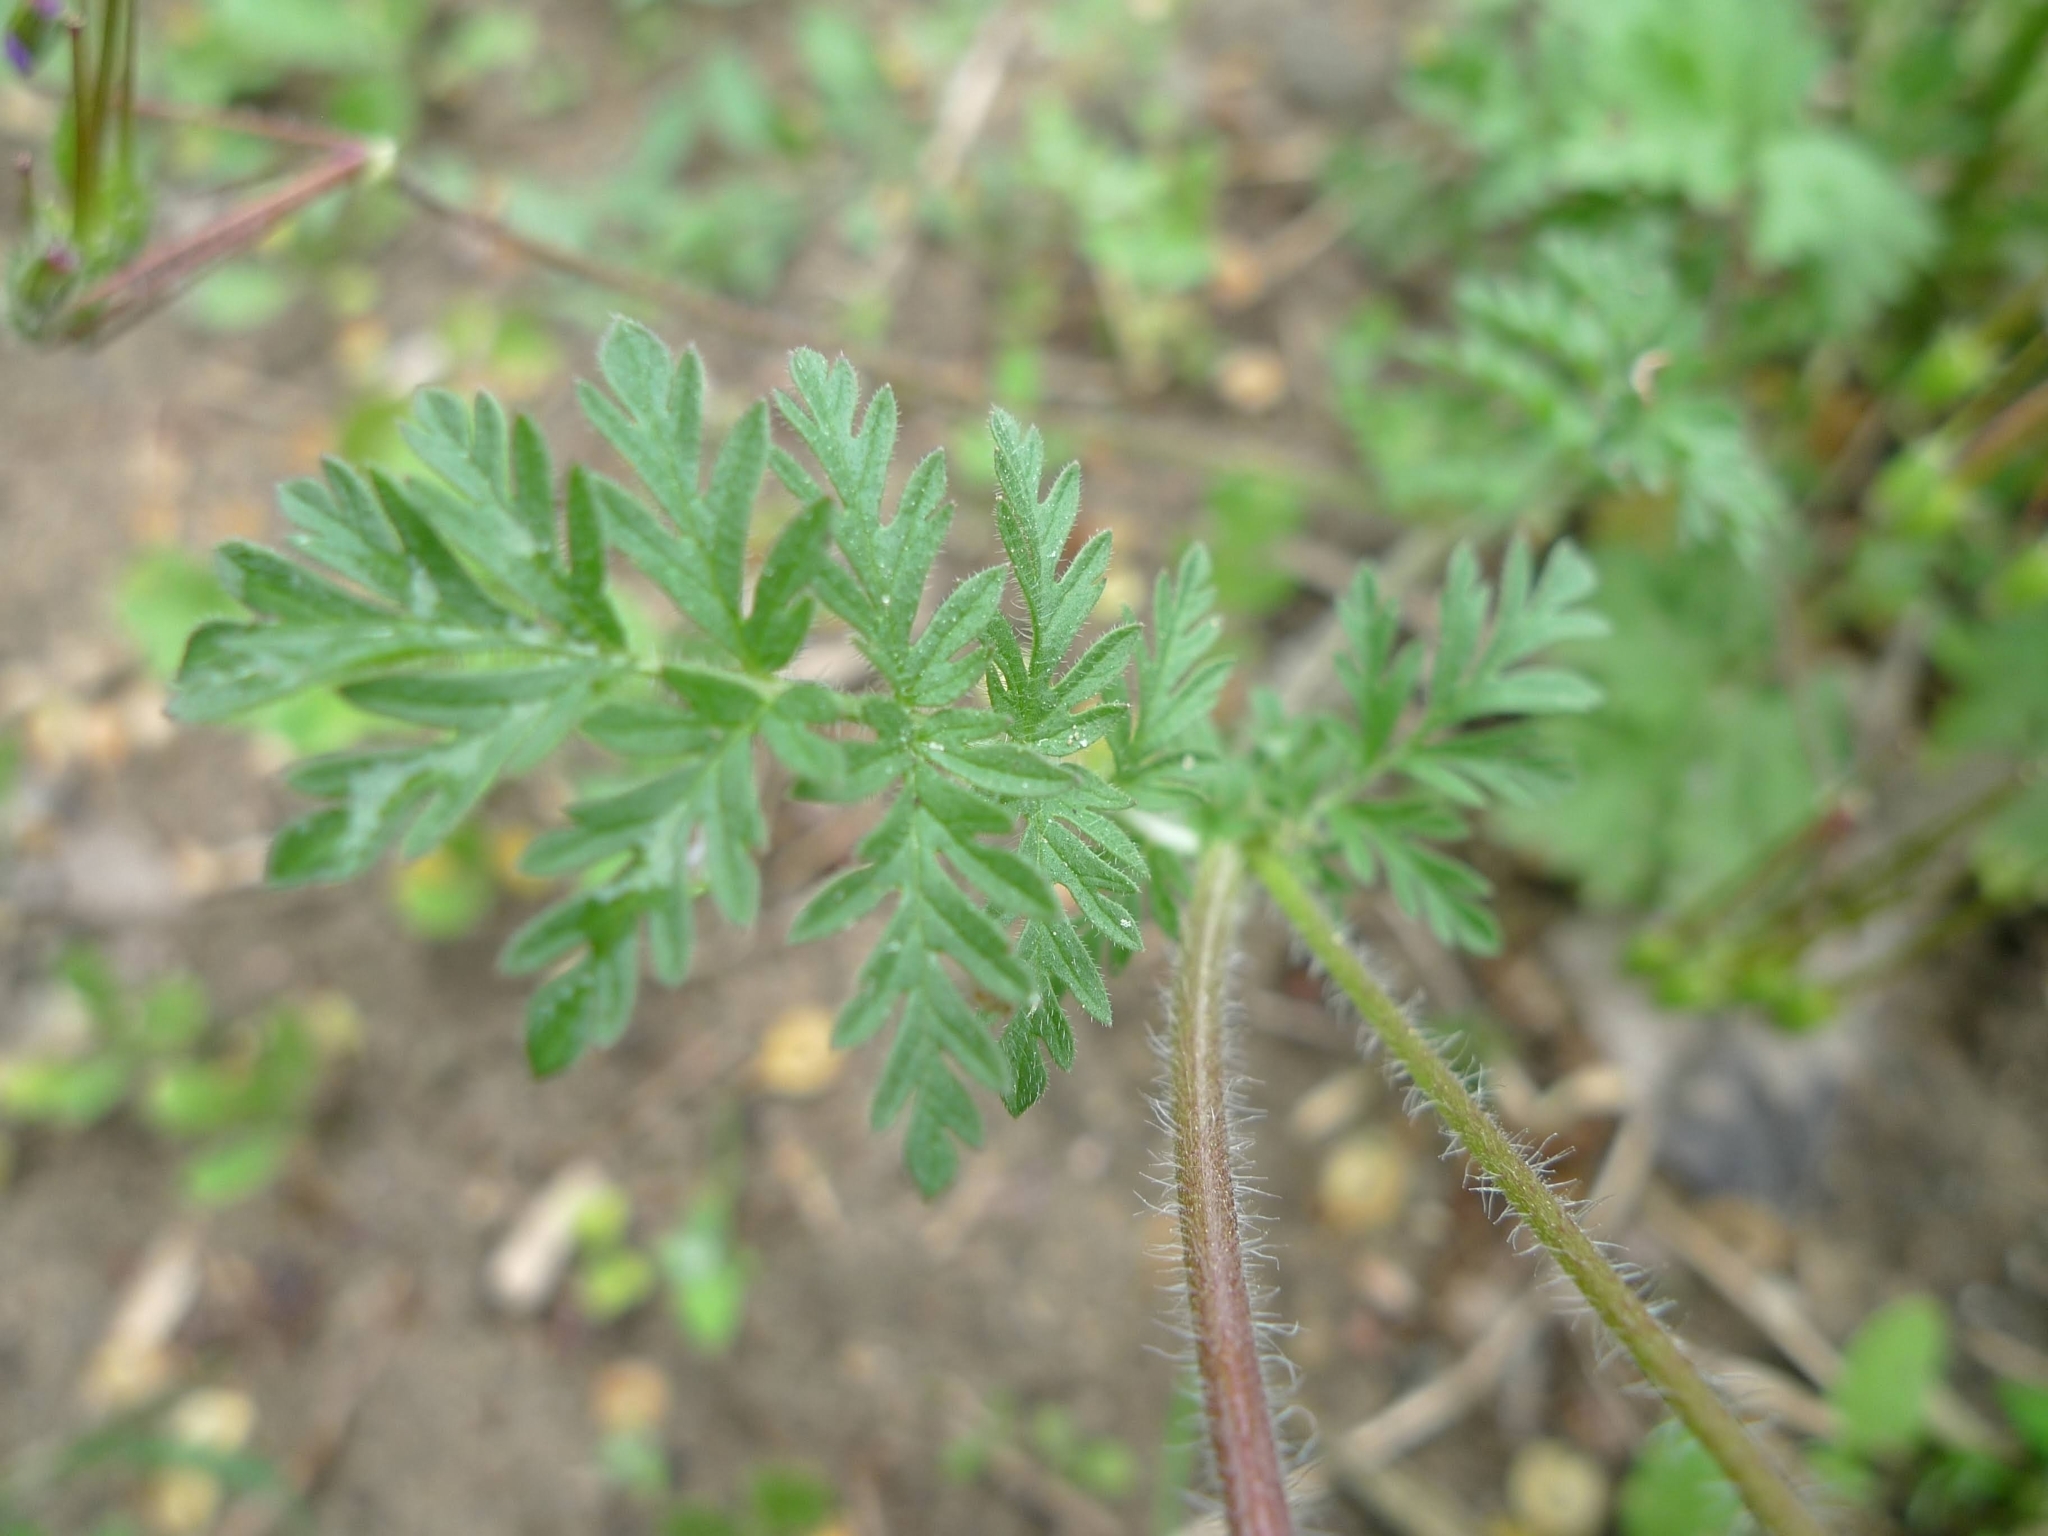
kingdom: Plantae
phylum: Tracheophyta
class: Magnoliopsida
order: Geraniales
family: Geraniaceae
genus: Erodium
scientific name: Erodium cicutarium
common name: Common stork's-bill
